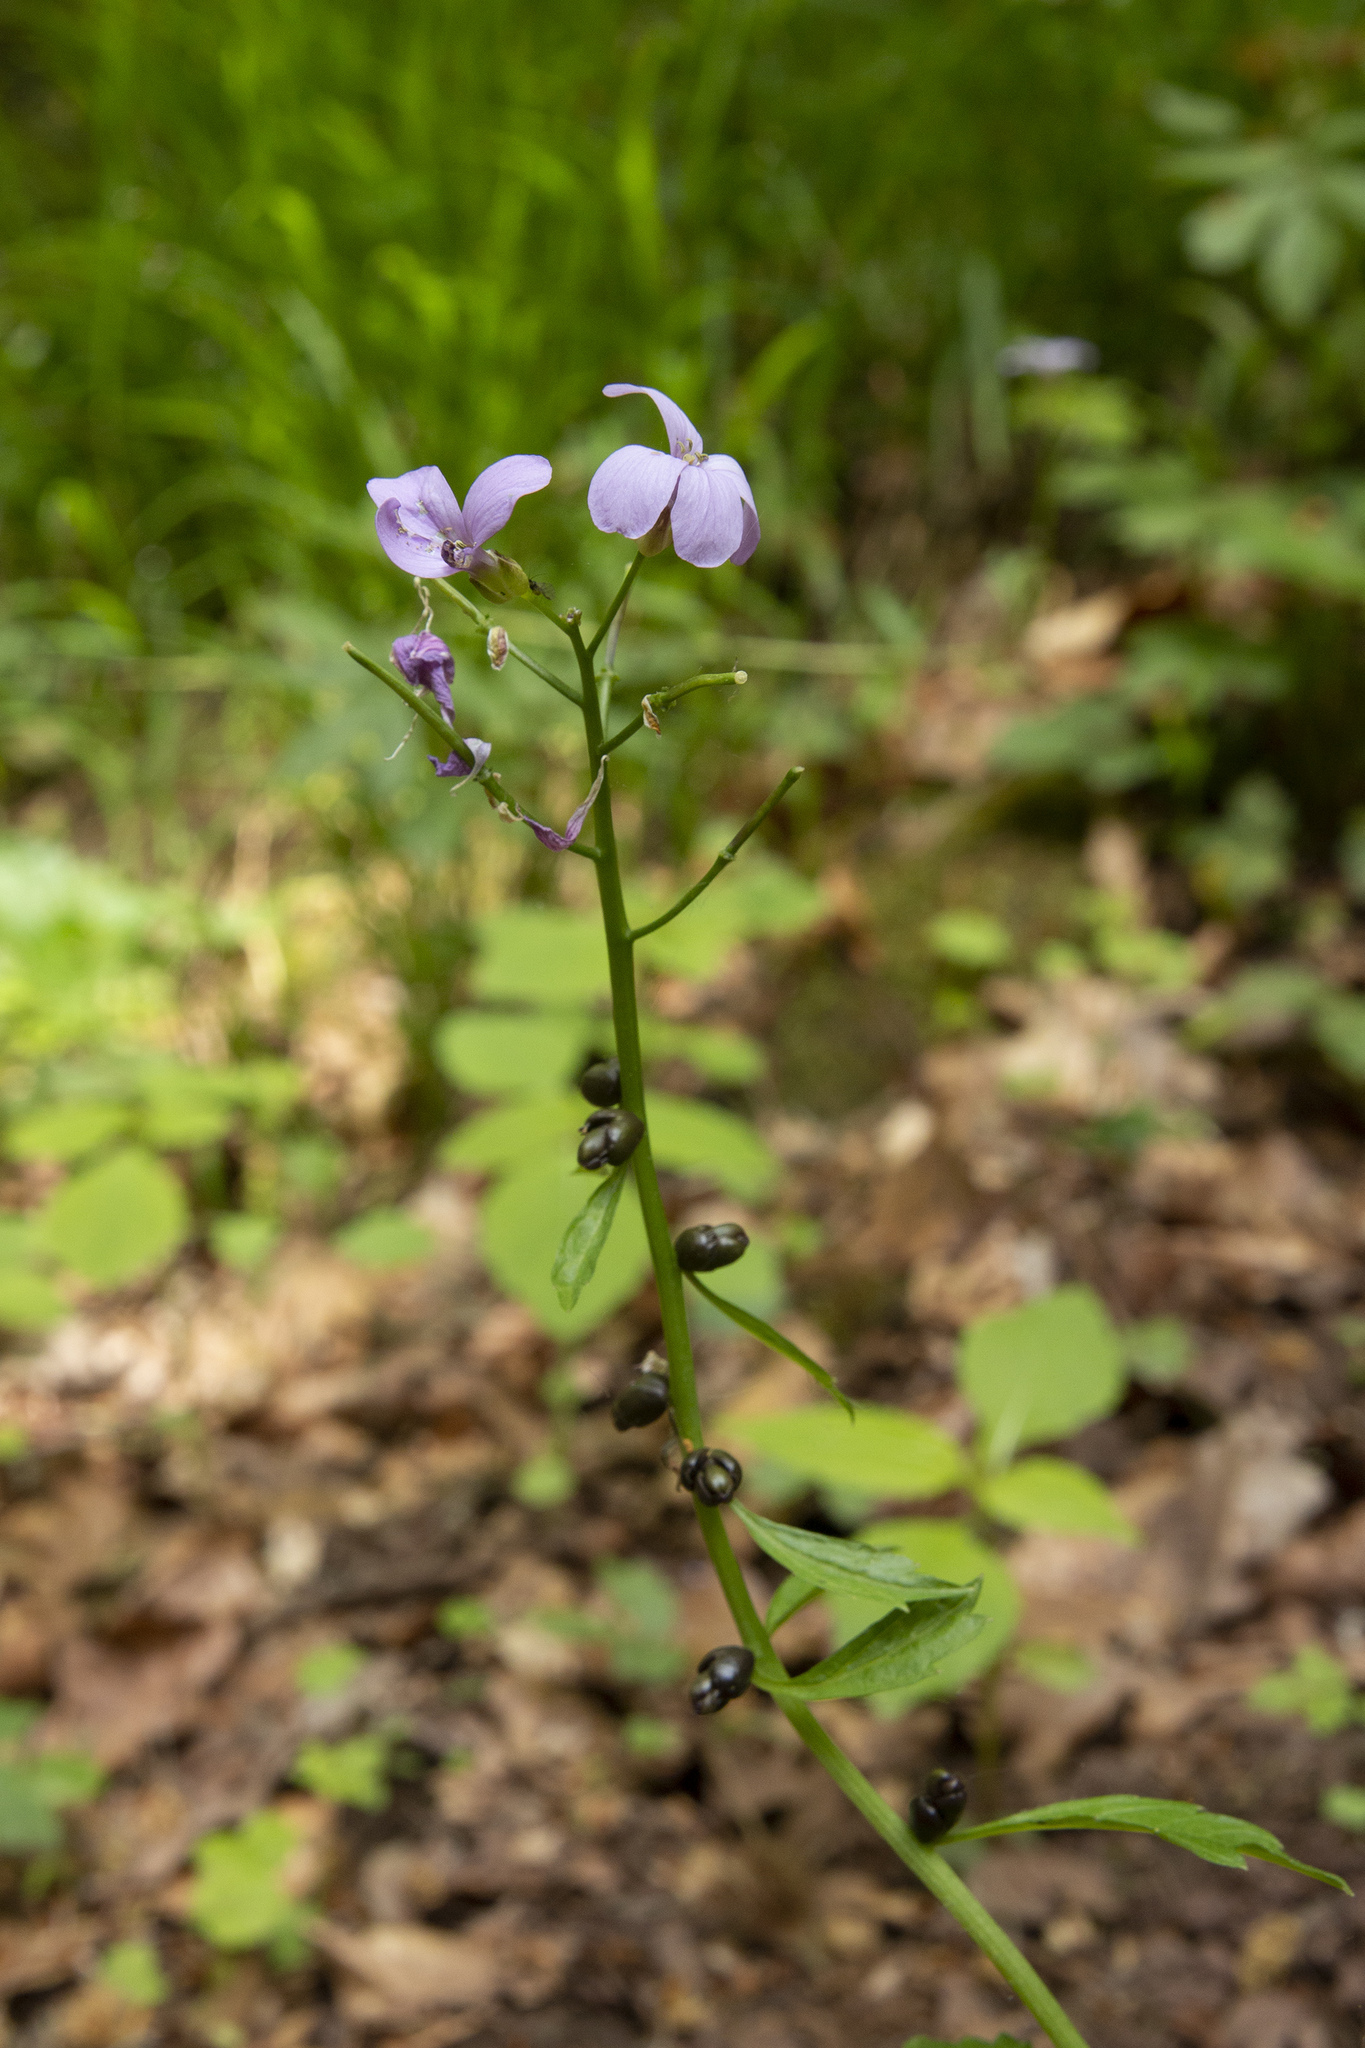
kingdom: Plantae
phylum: Tracheophyta
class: Magnoliopsida
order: Brassicales
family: Brassicaceae
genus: Cardamine
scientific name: Cardamine bulbifera
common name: Coralroot bittercress
